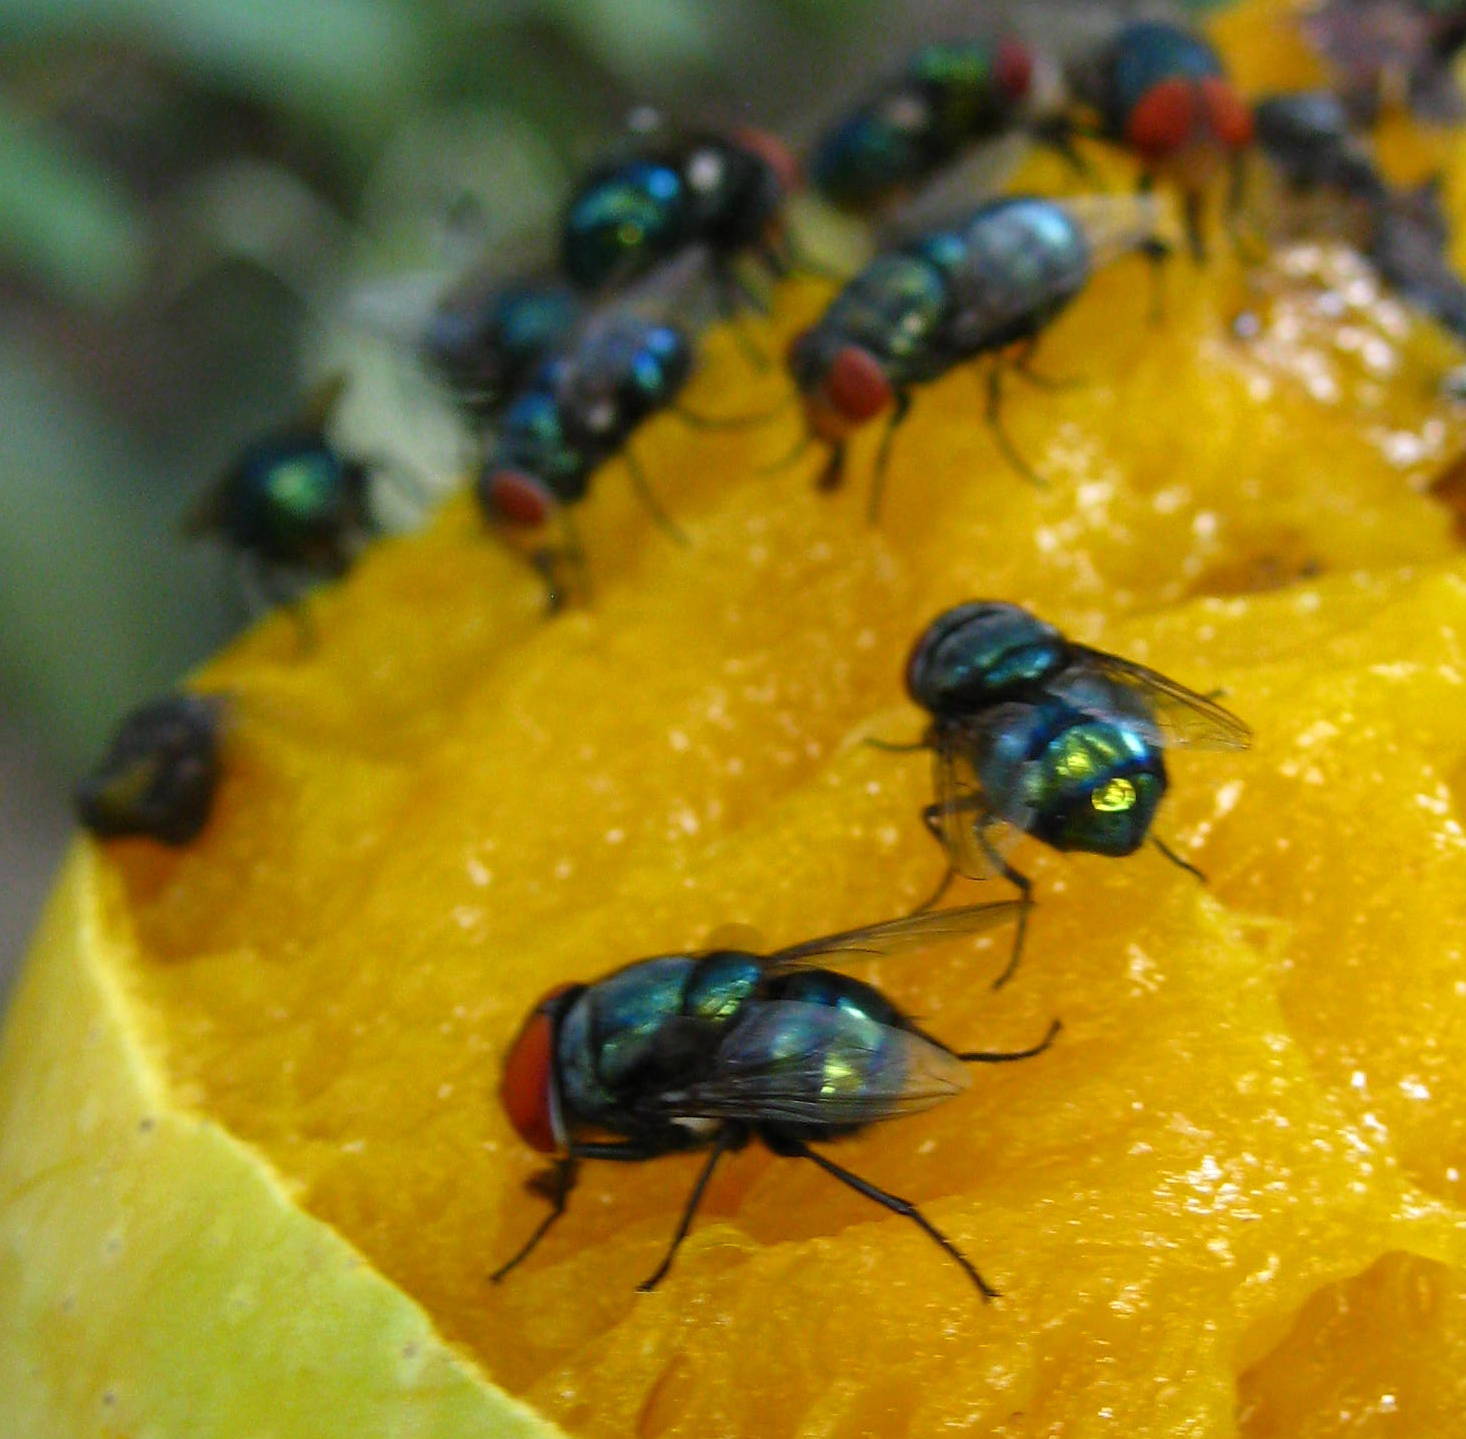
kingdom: Animalia
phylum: Arthropoda
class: Insecta
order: Diptera
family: Calliphoridae
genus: Chrysomya
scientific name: Chrysomya megacephala
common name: Blow fly
